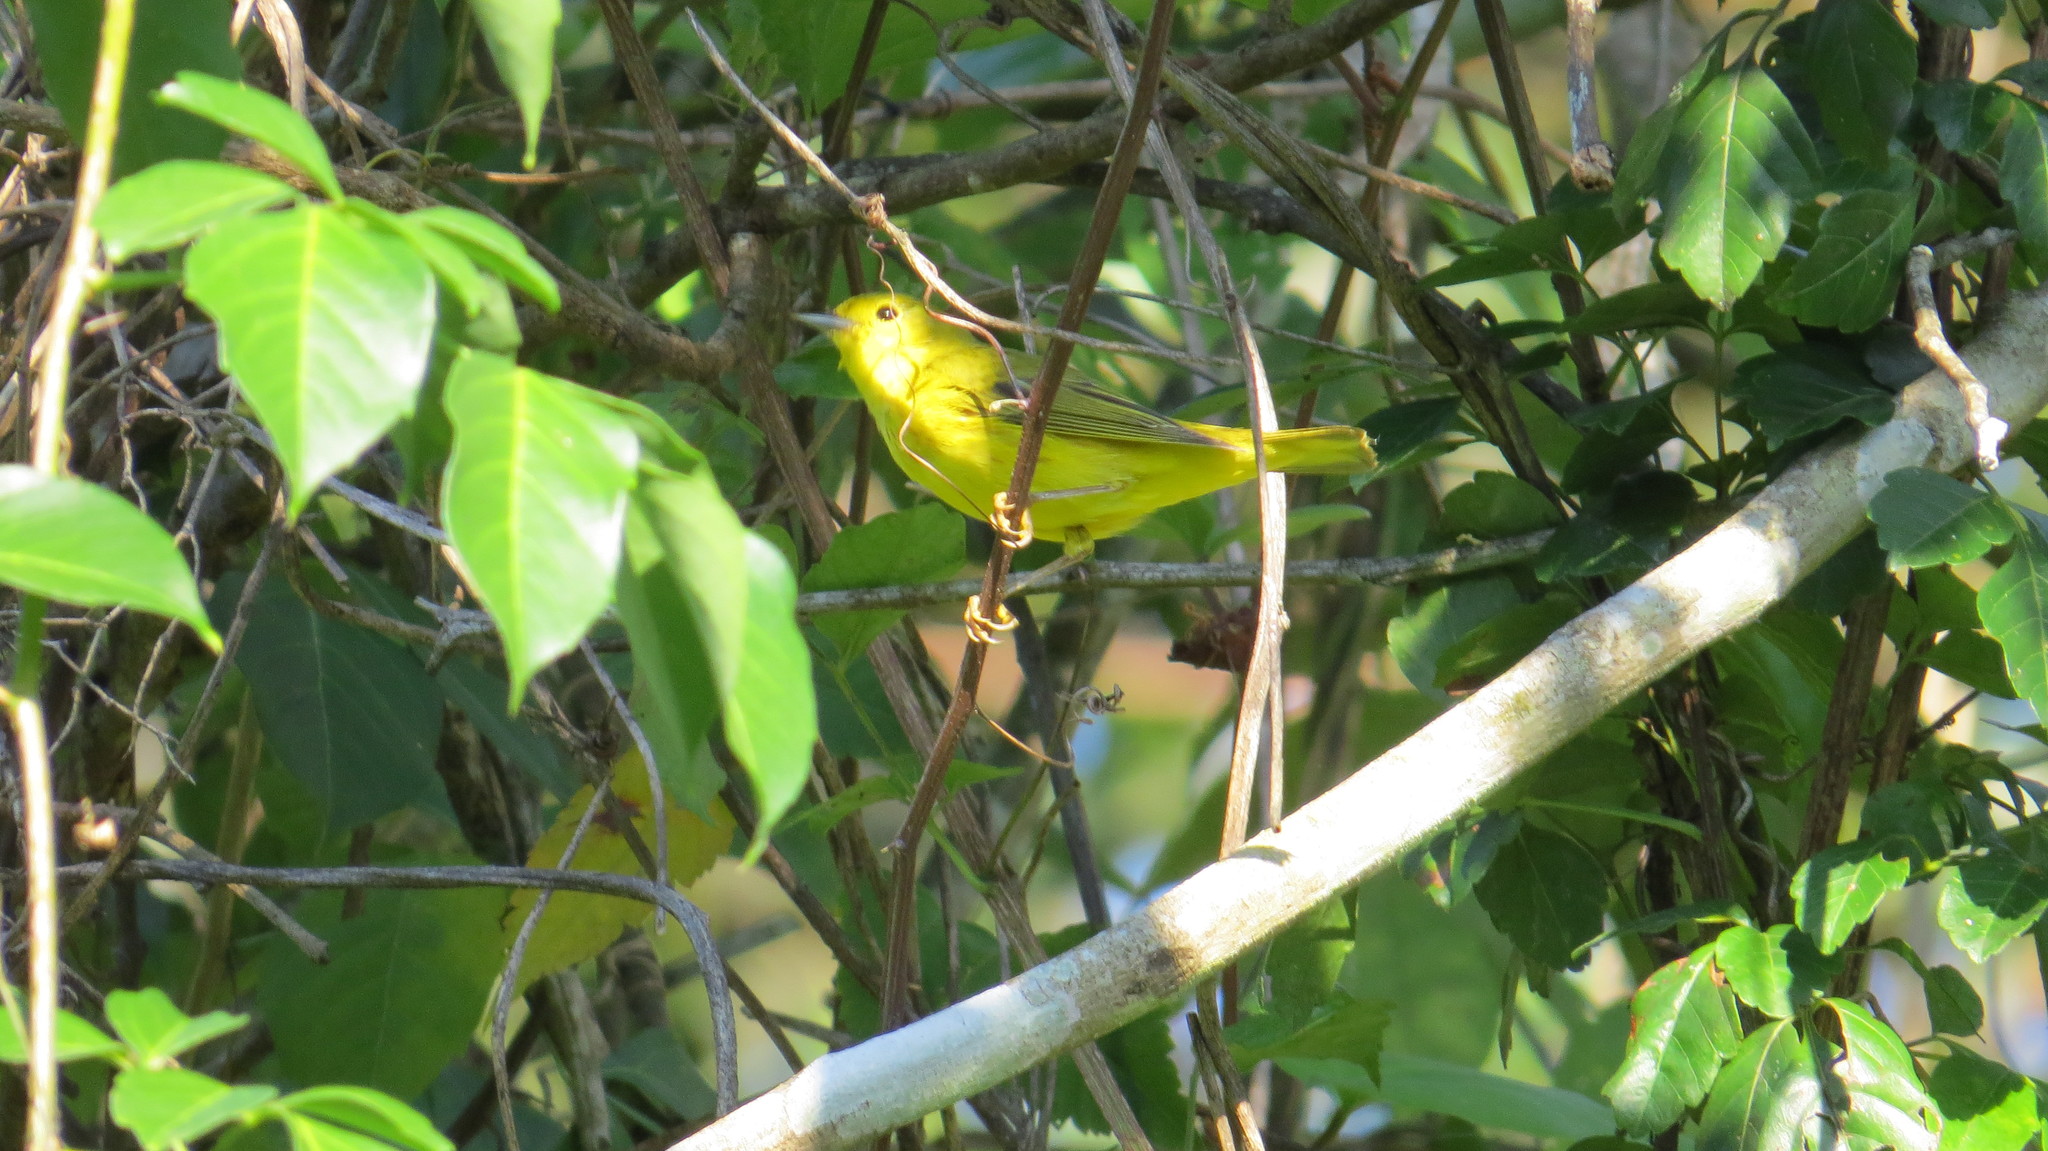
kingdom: Animalia
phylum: Chordata
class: Aves
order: Passeriformes
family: Parulidae
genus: Setophaga
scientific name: Setophaga petechia
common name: Yellow warbler
